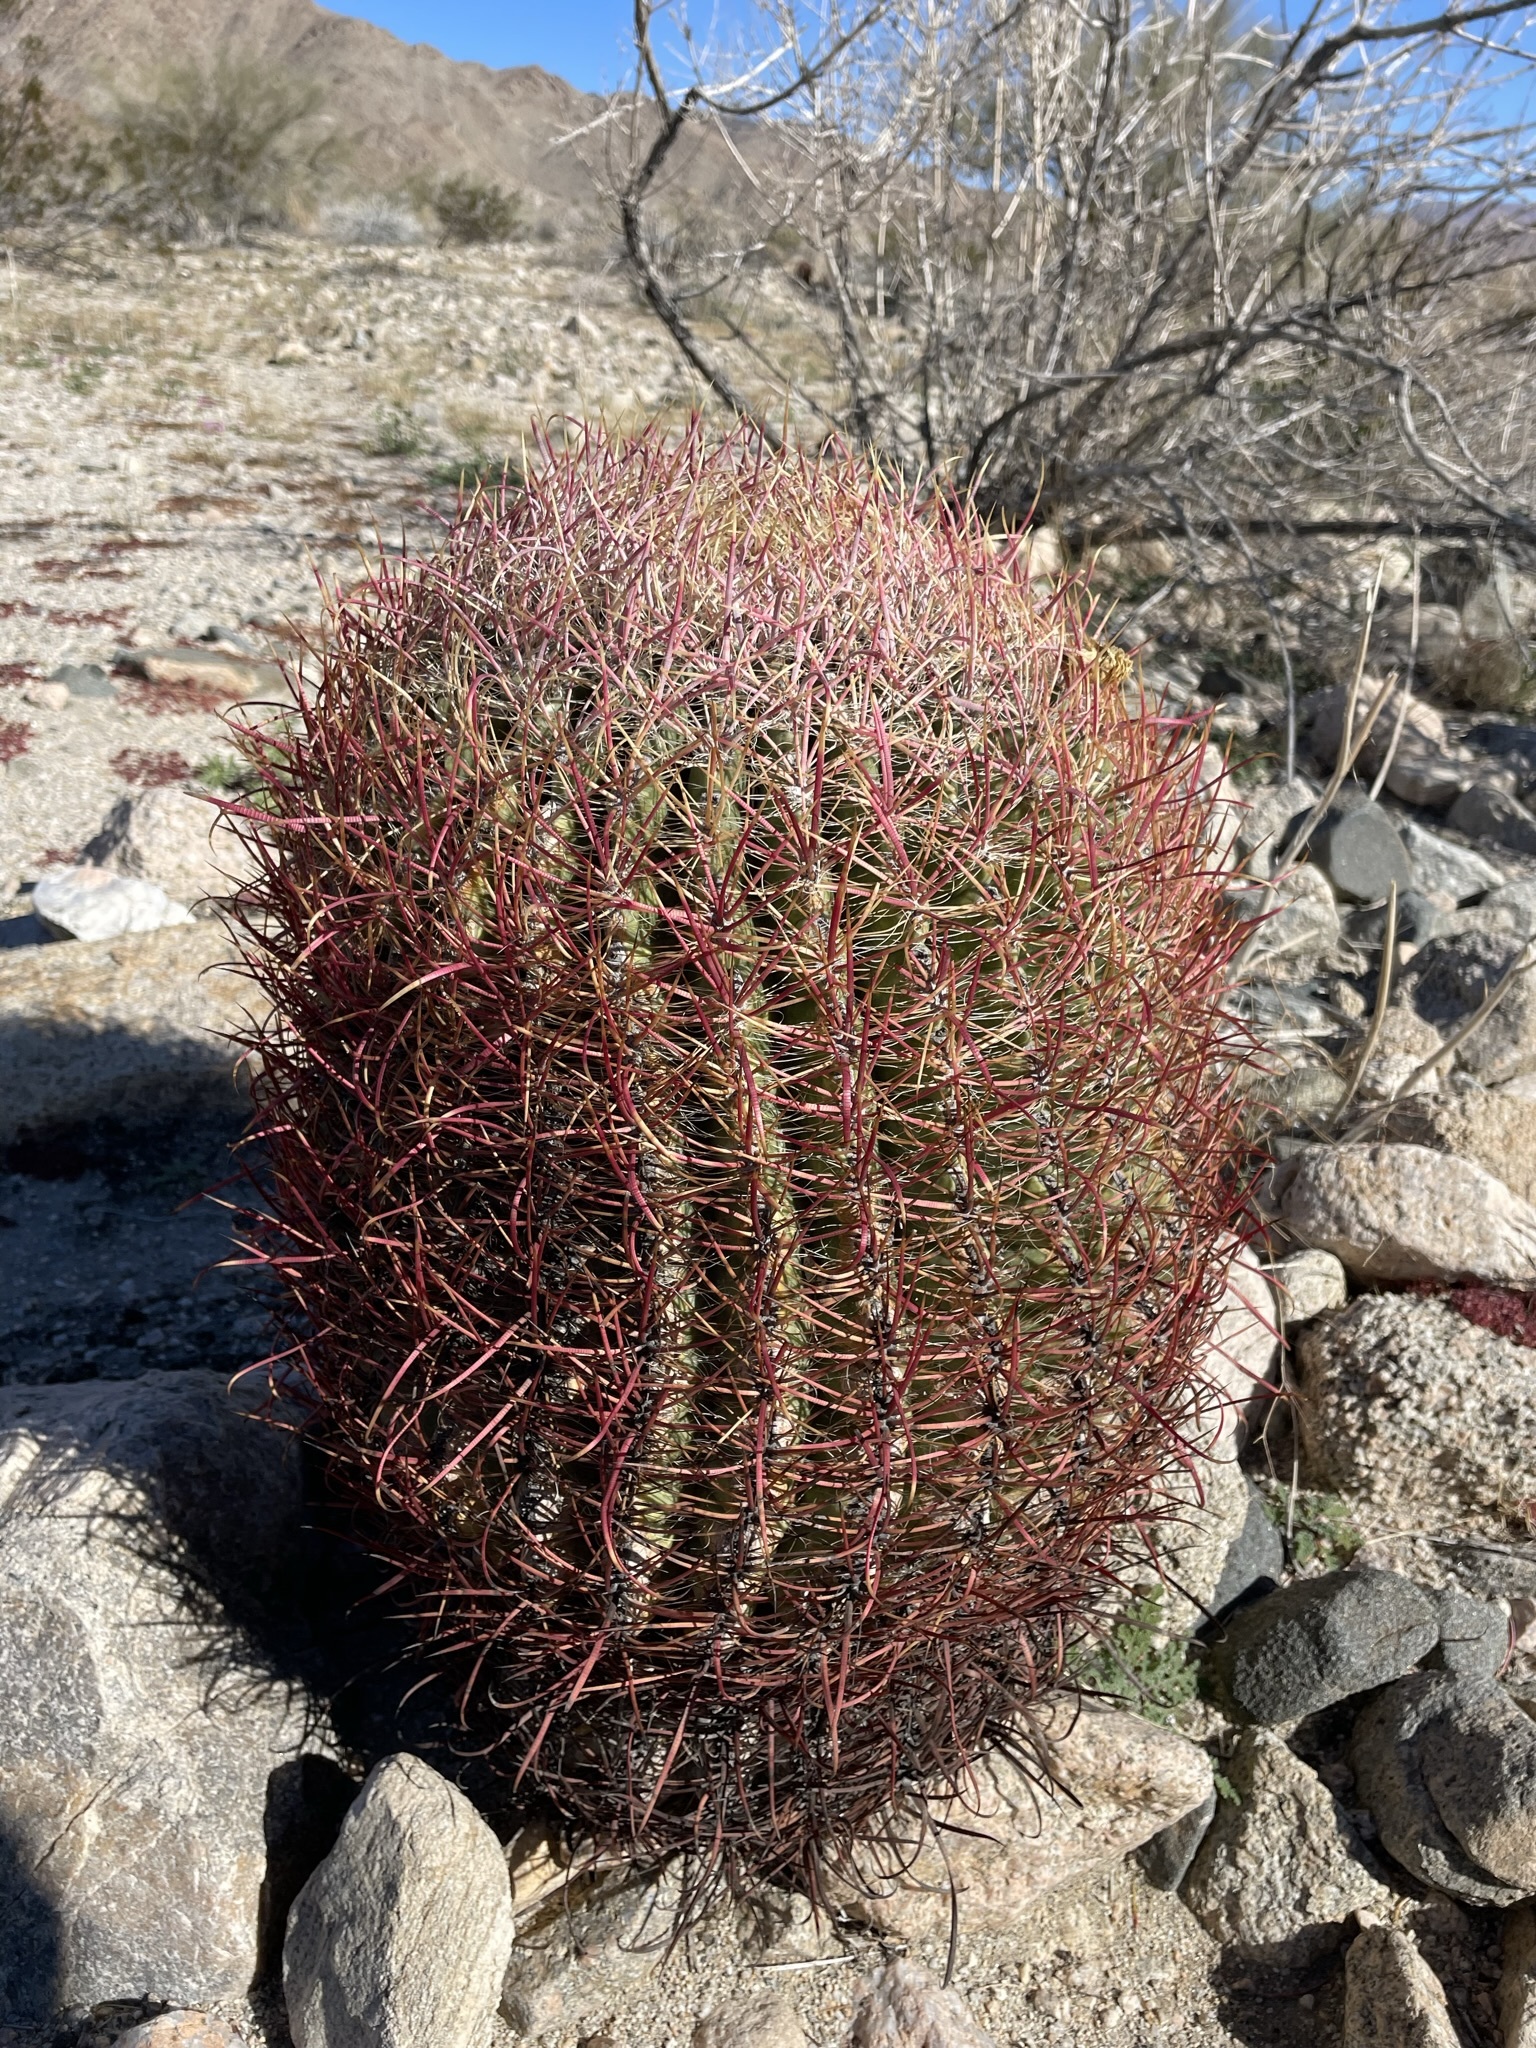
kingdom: Plantae
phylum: Tracheophyta
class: Magnoliopsida
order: Caryophyllales
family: Cactaceae
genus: Ferocactus
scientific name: Ferocactus cylindraceus
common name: California barrel cactus
